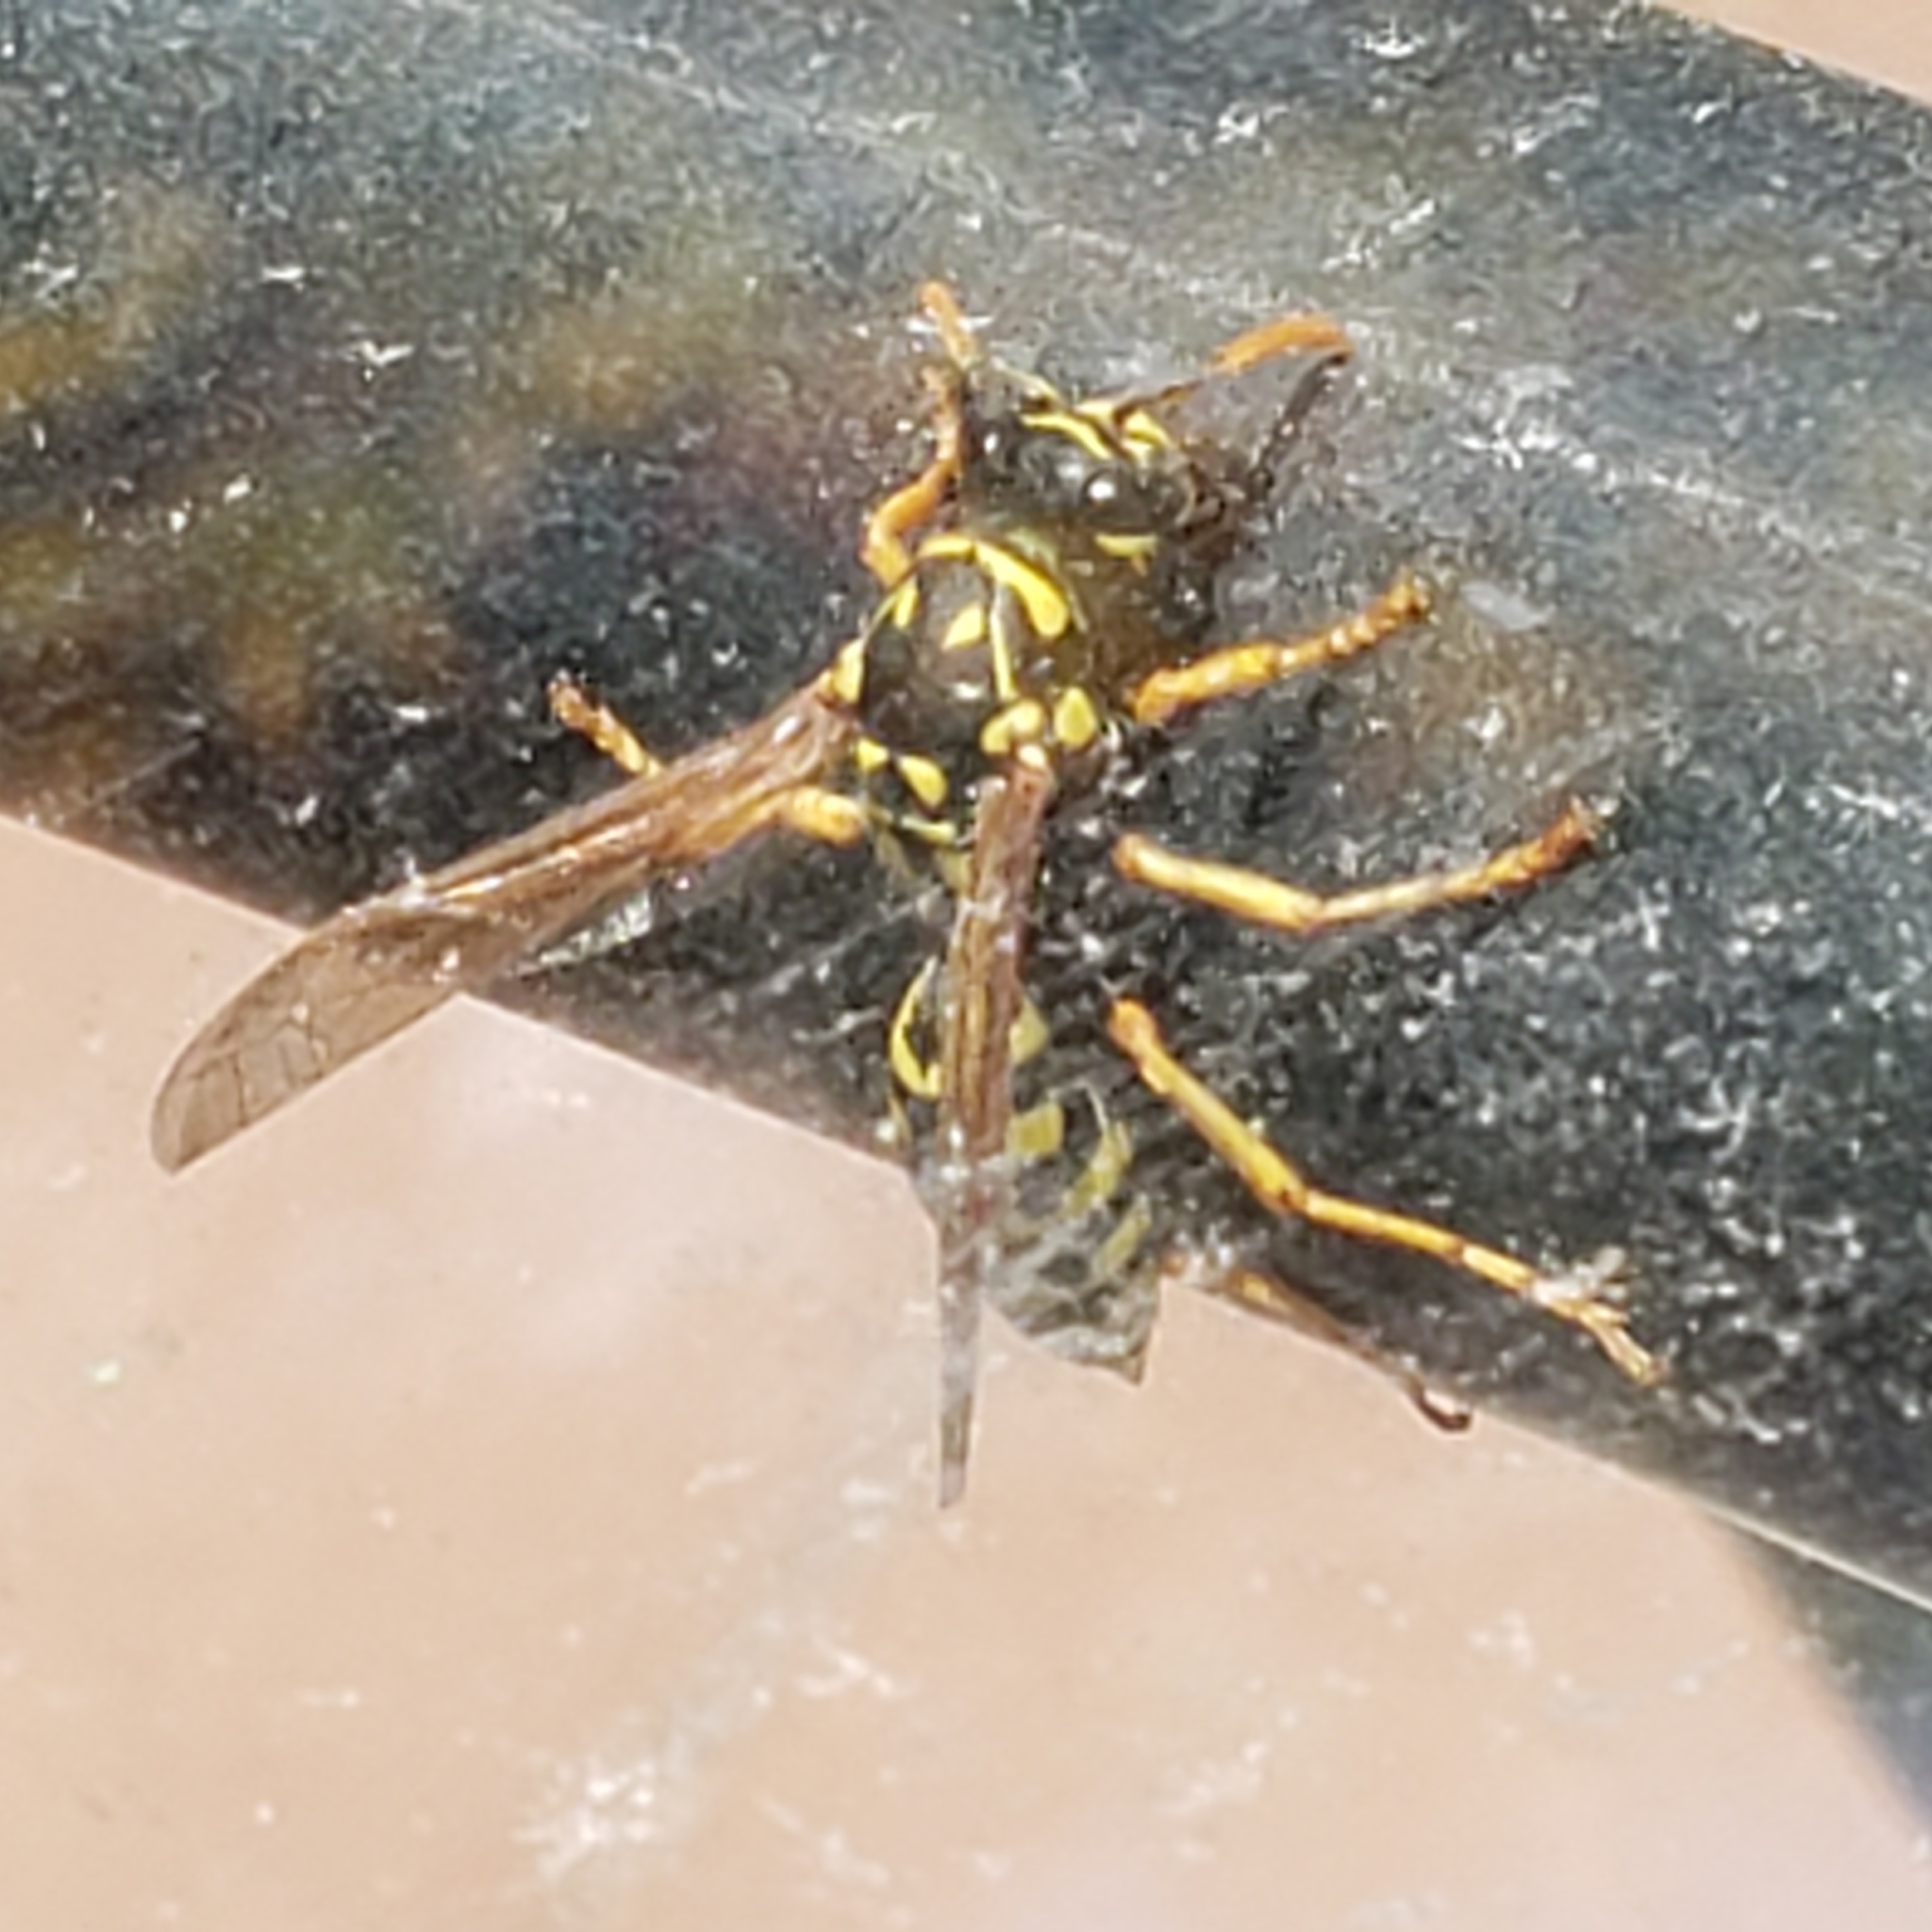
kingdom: Animalia
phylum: Arthropoda
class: Insecta
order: Hymenoptera
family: Eumenidae
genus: Polistes
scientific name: Polistes dominula
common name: Paper wasp
